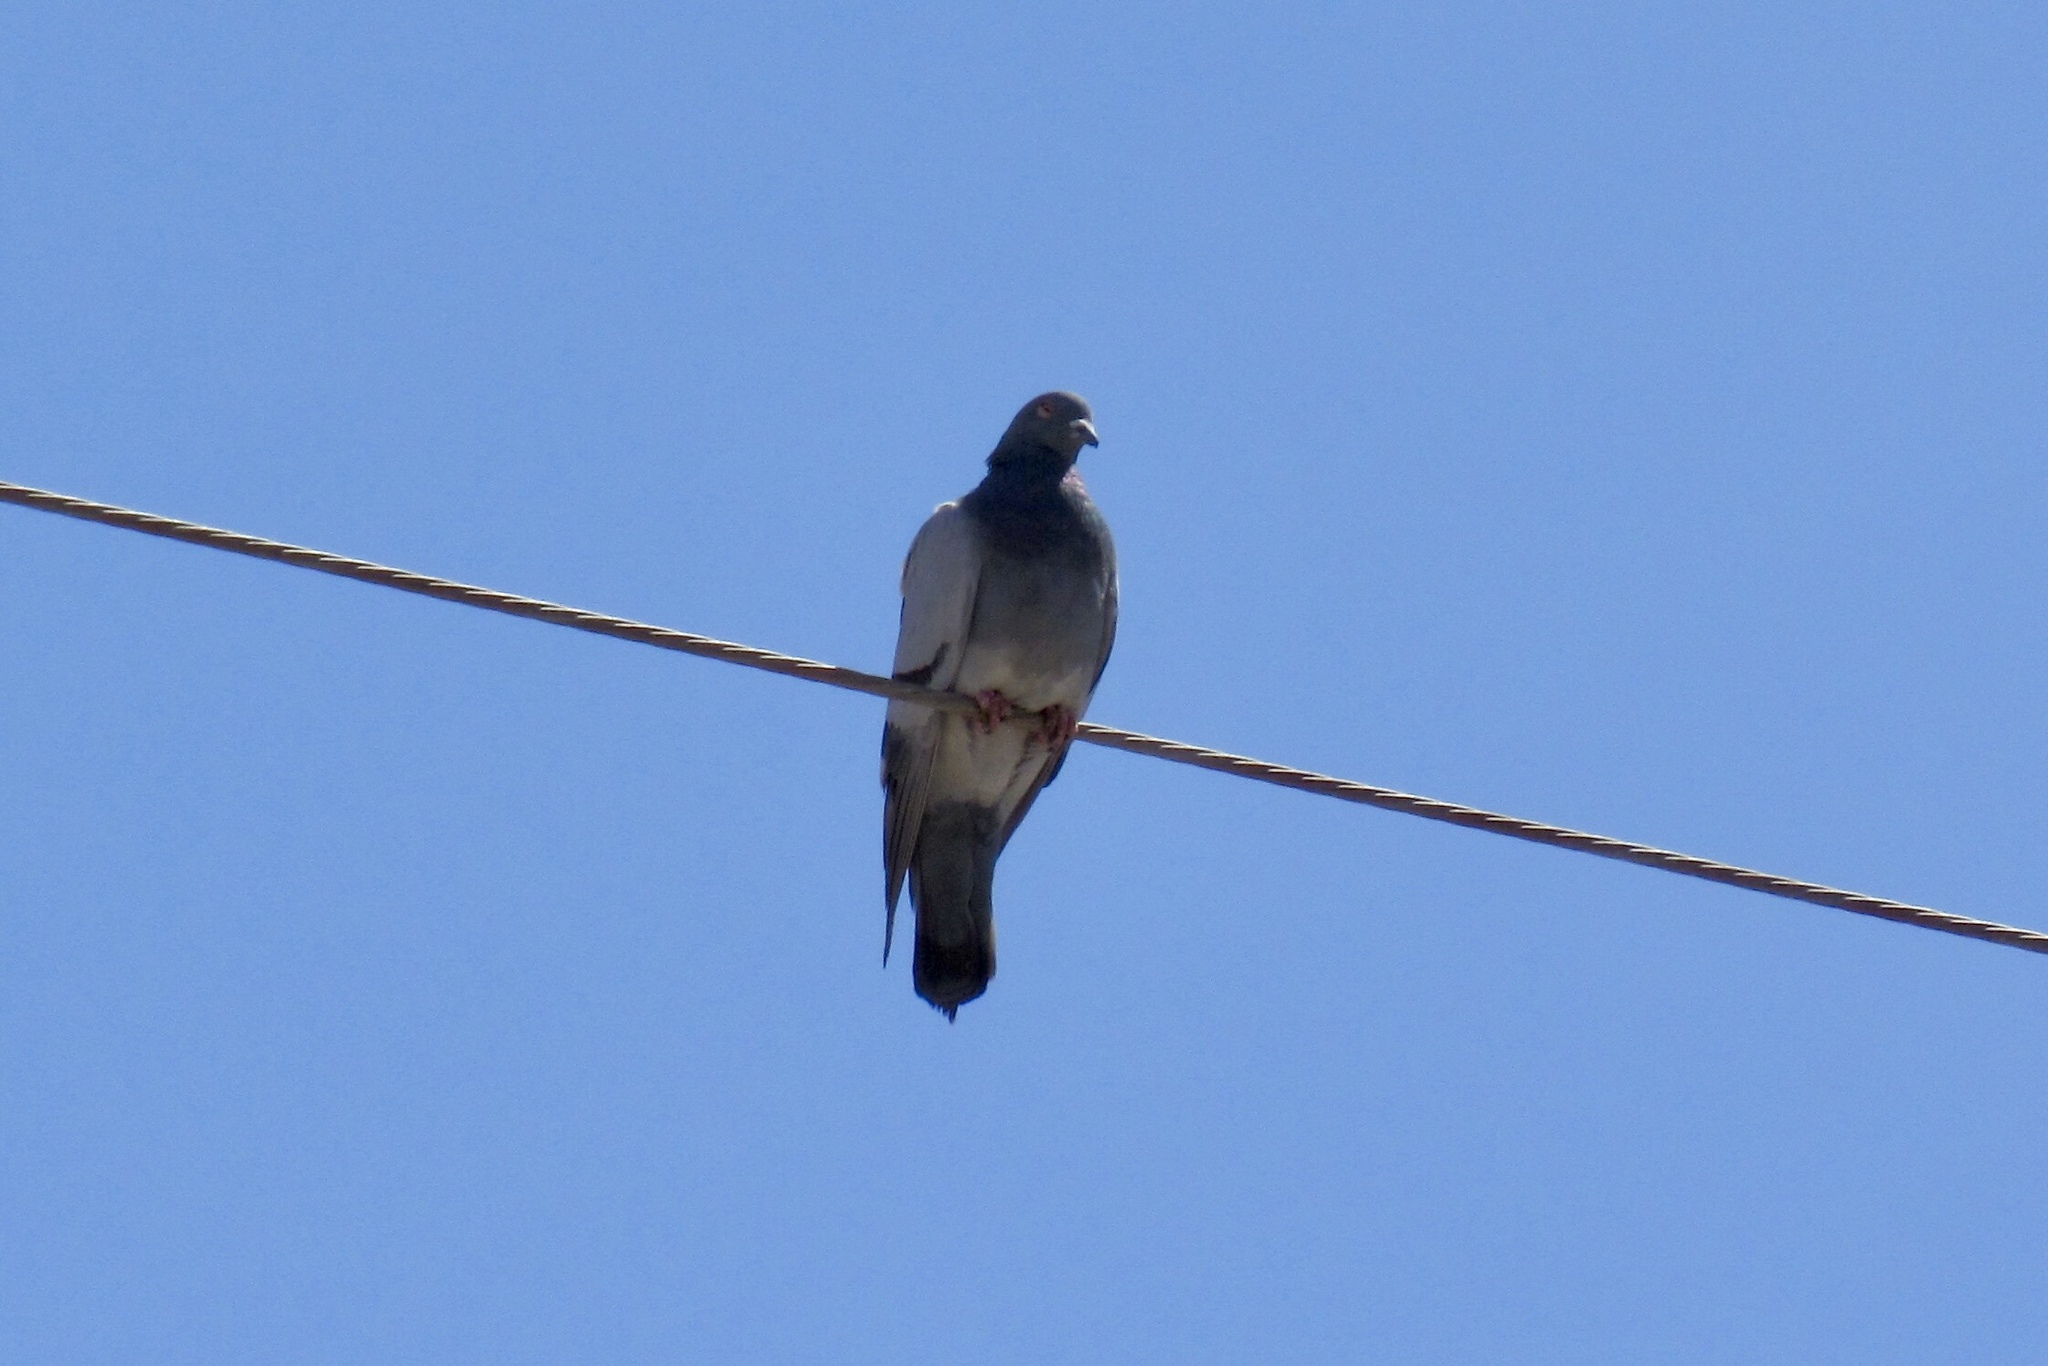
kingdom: Animalia
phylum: Chordata
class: Aves
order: Columbiformes
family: Columbidae
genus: Columba
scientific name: Columba livia
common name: Rock pigeon
